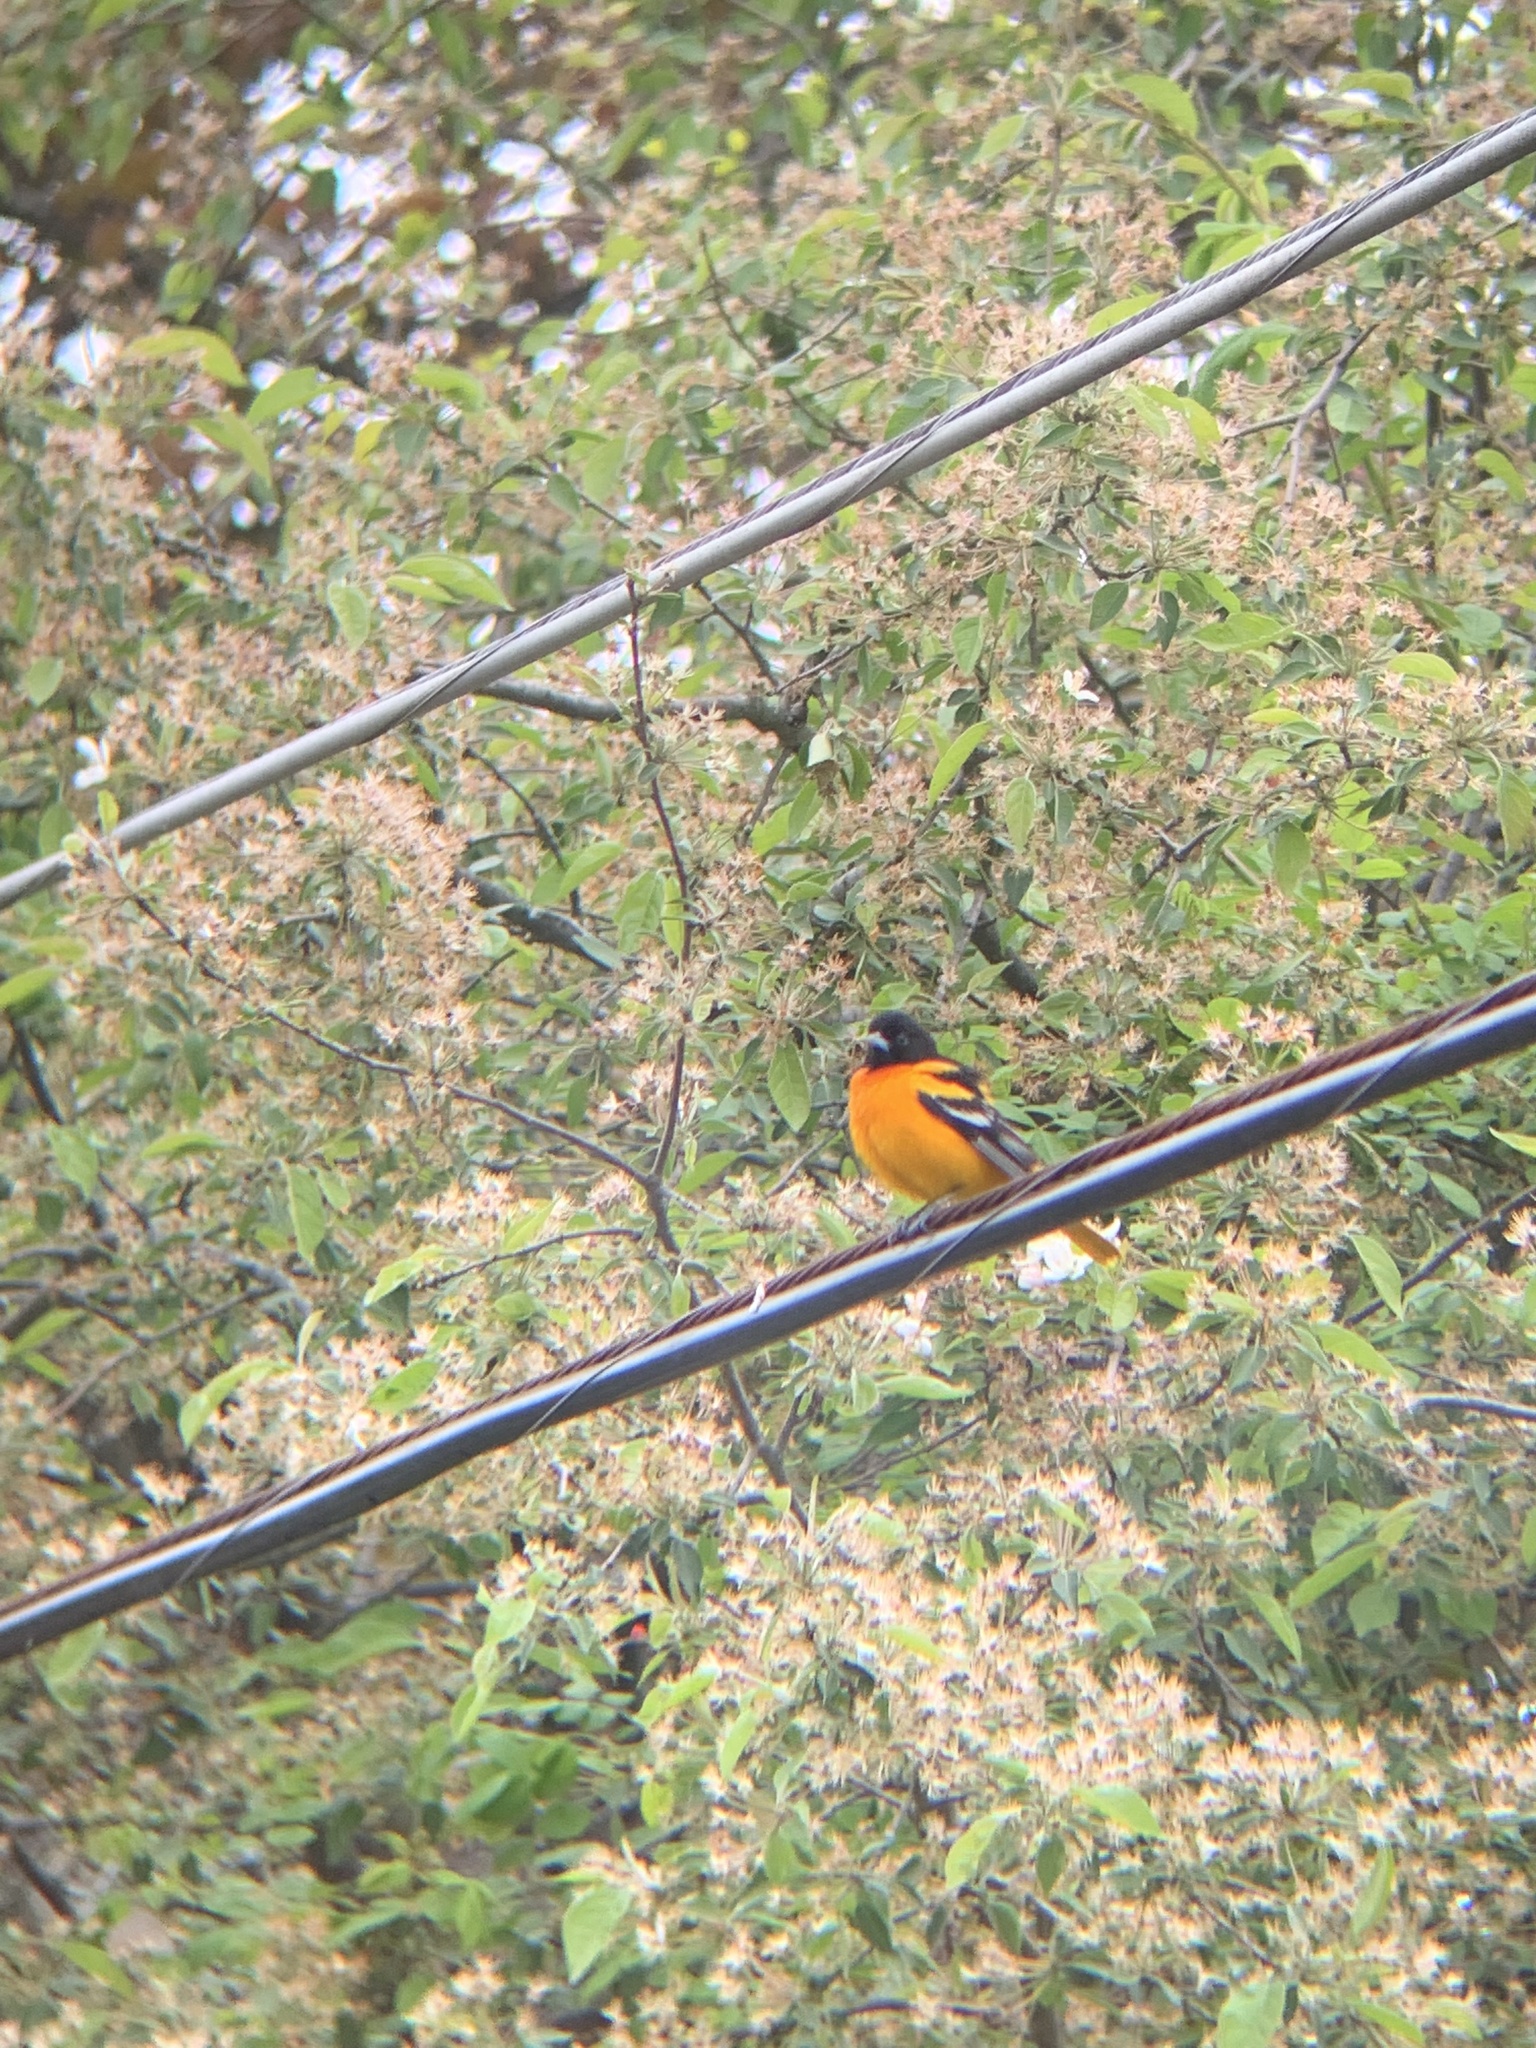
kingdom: Animalia
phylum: Chordata
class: Aves
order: Passeriformes
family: Icteridae
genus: Icterus
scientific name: Icterus galbula
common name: Baltimore oriole
